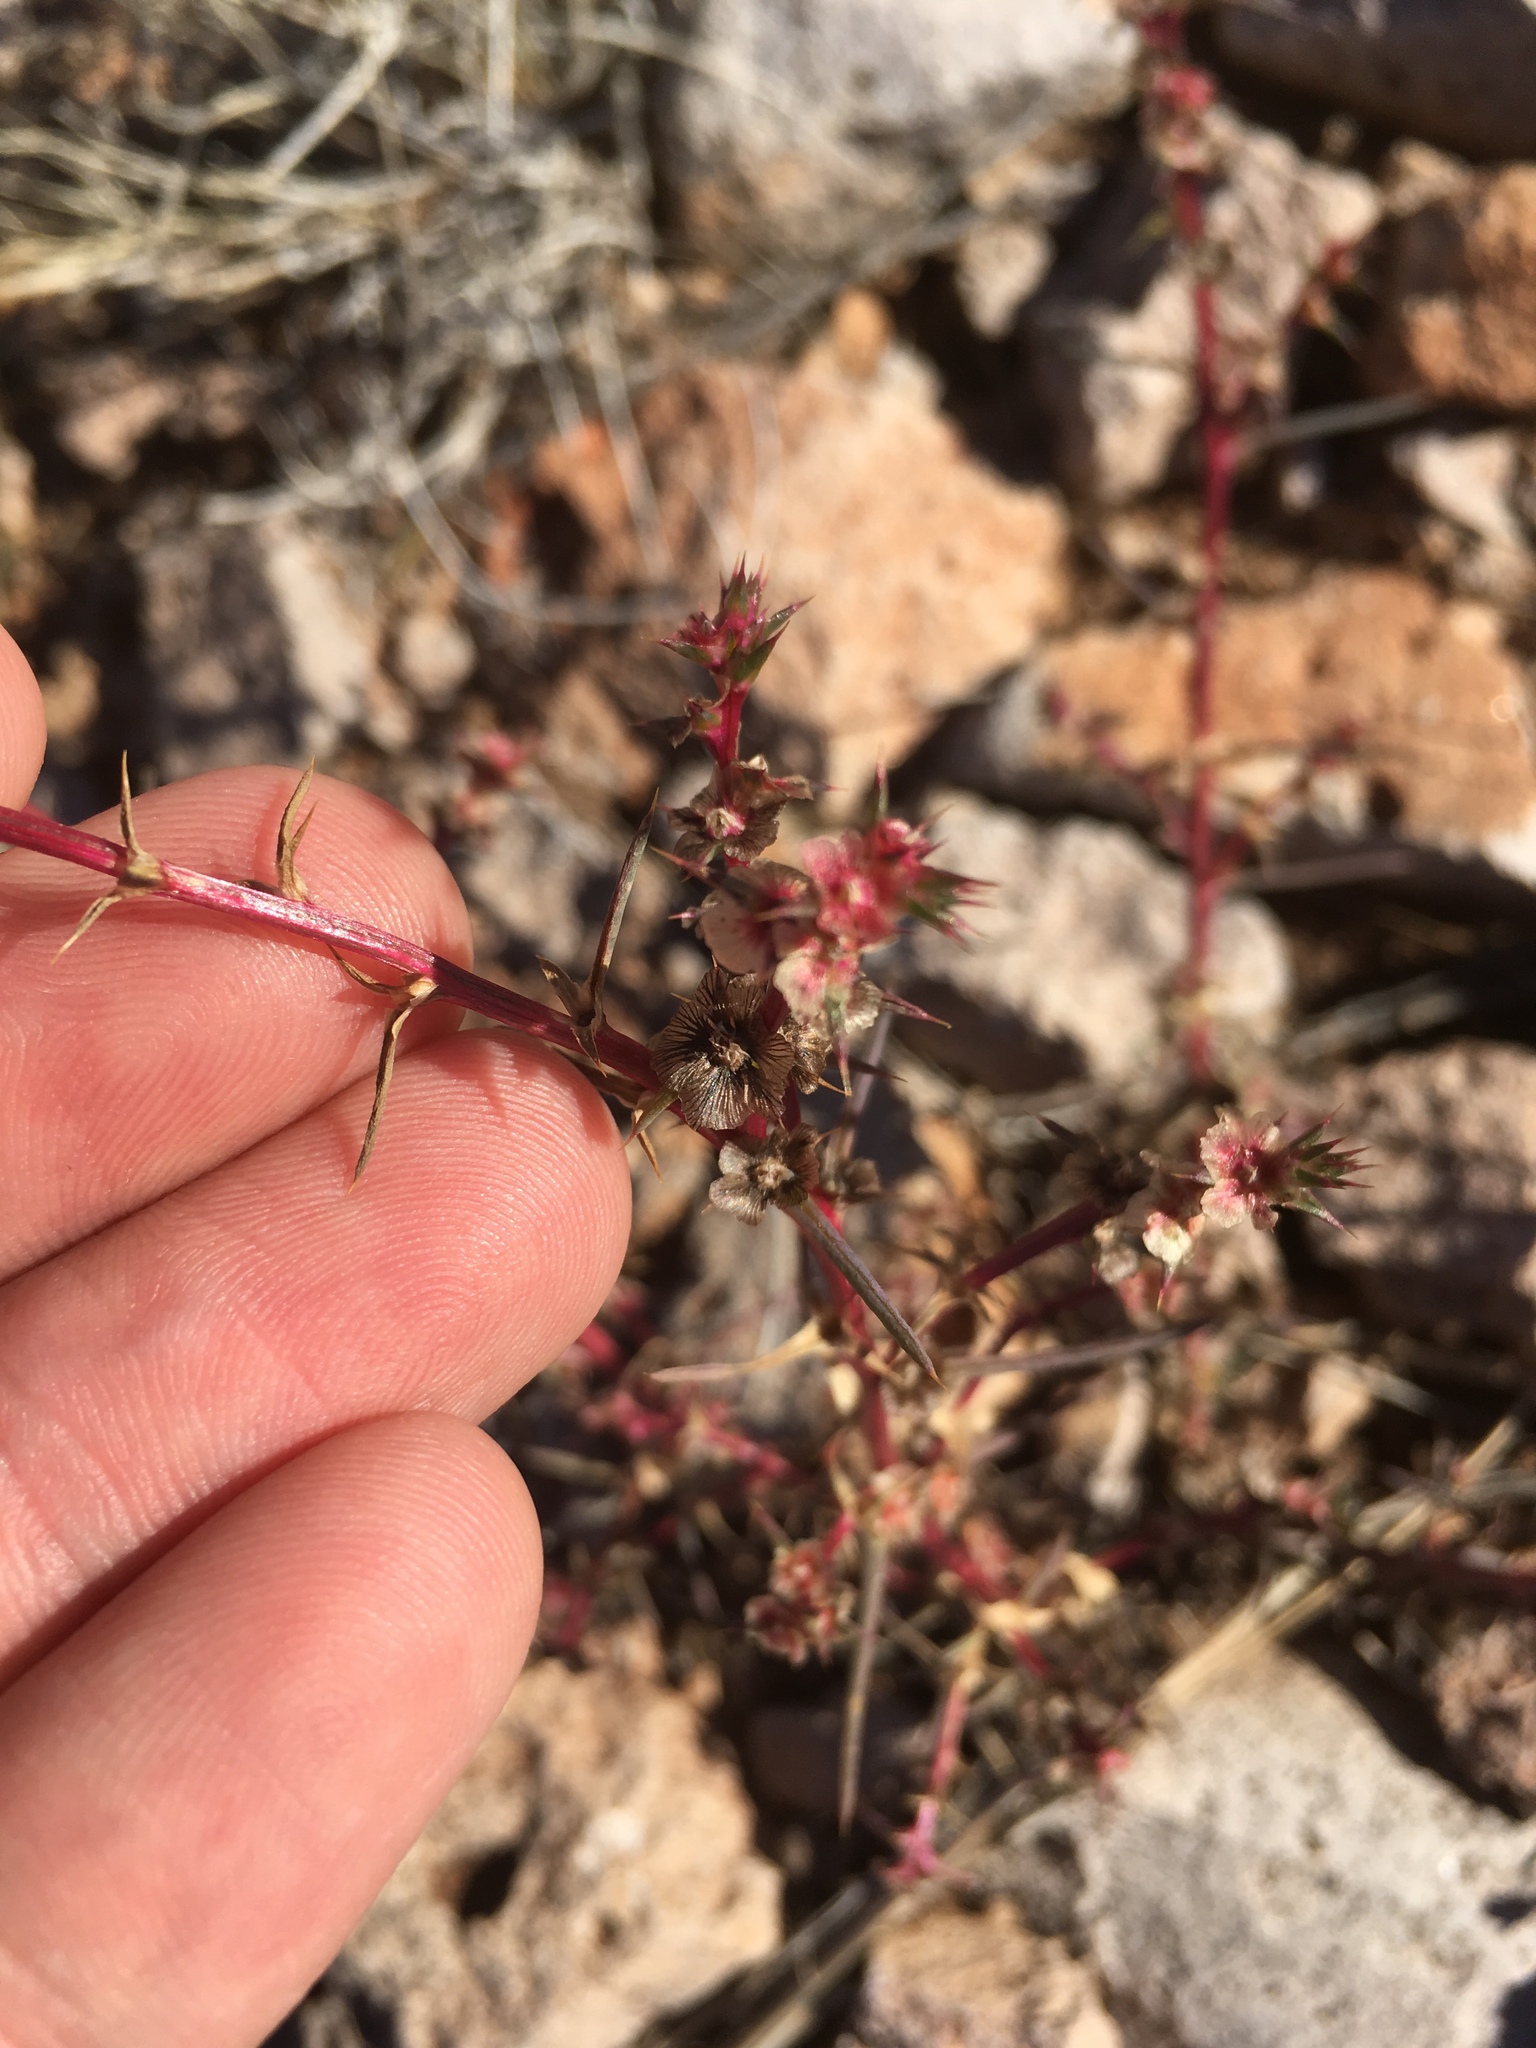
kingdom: Plantae
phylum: Tracheophyta
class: Magnoliopsida
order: Caryophyllales
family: Amaranthaceae
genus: Salsola
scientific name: Salsola tragus
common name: Prickly russian thistle
